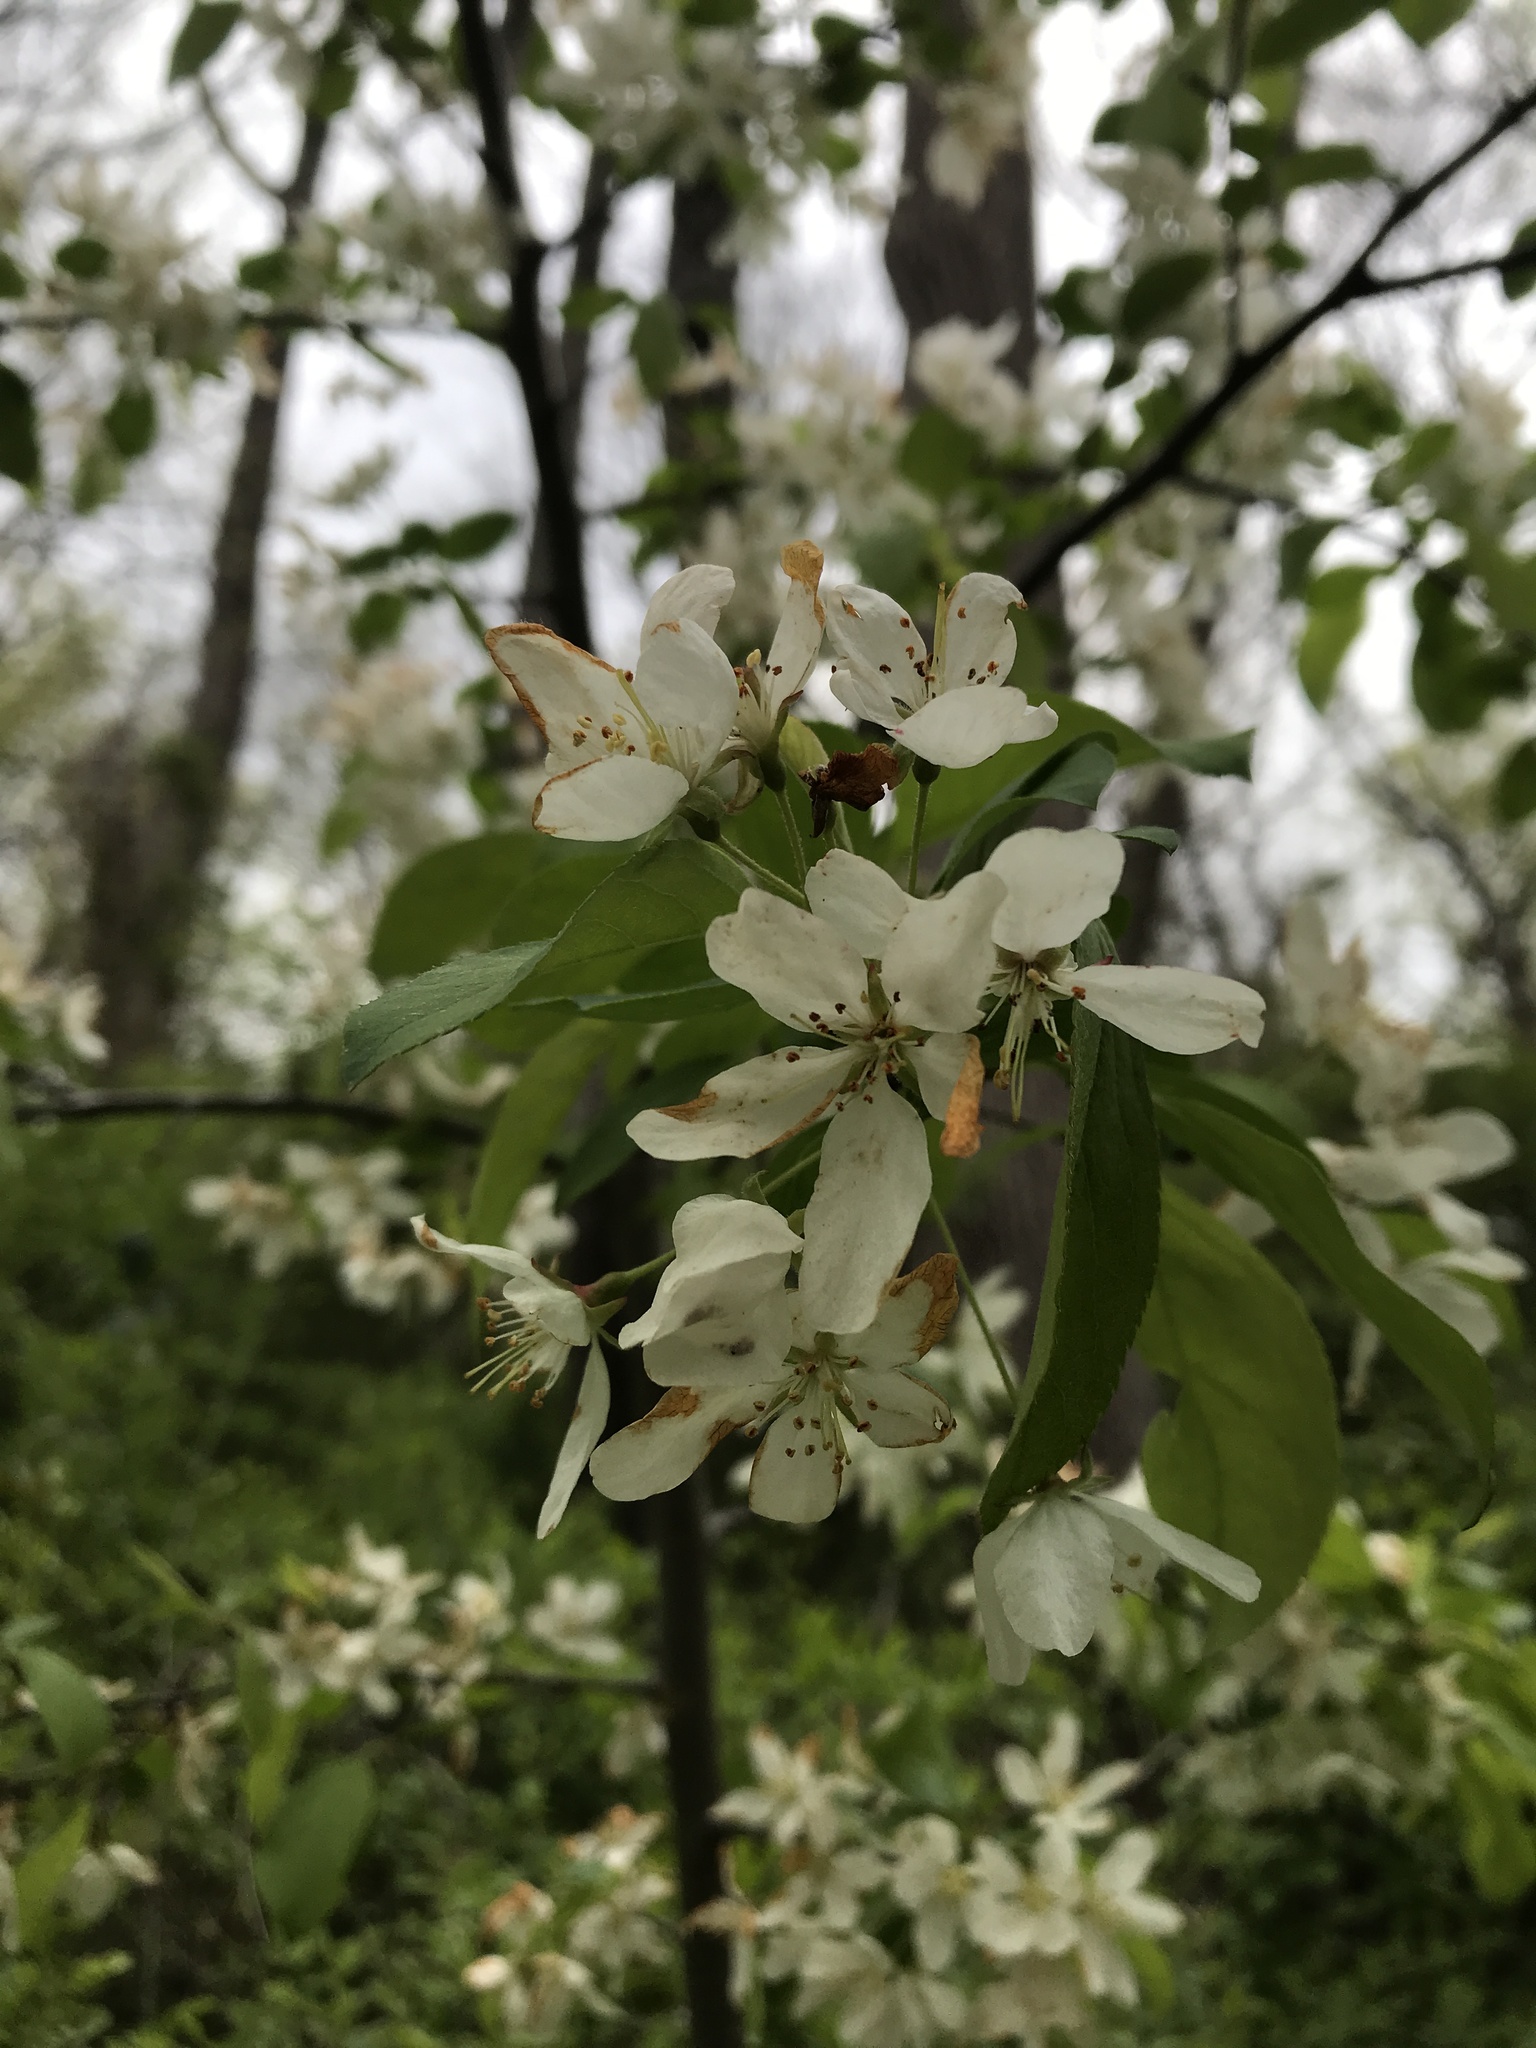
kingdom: Plantae
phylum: Tracheophyta
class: Magnoliopsida
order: Rosales
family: Rosaceae
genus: Malus
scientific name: Malus
